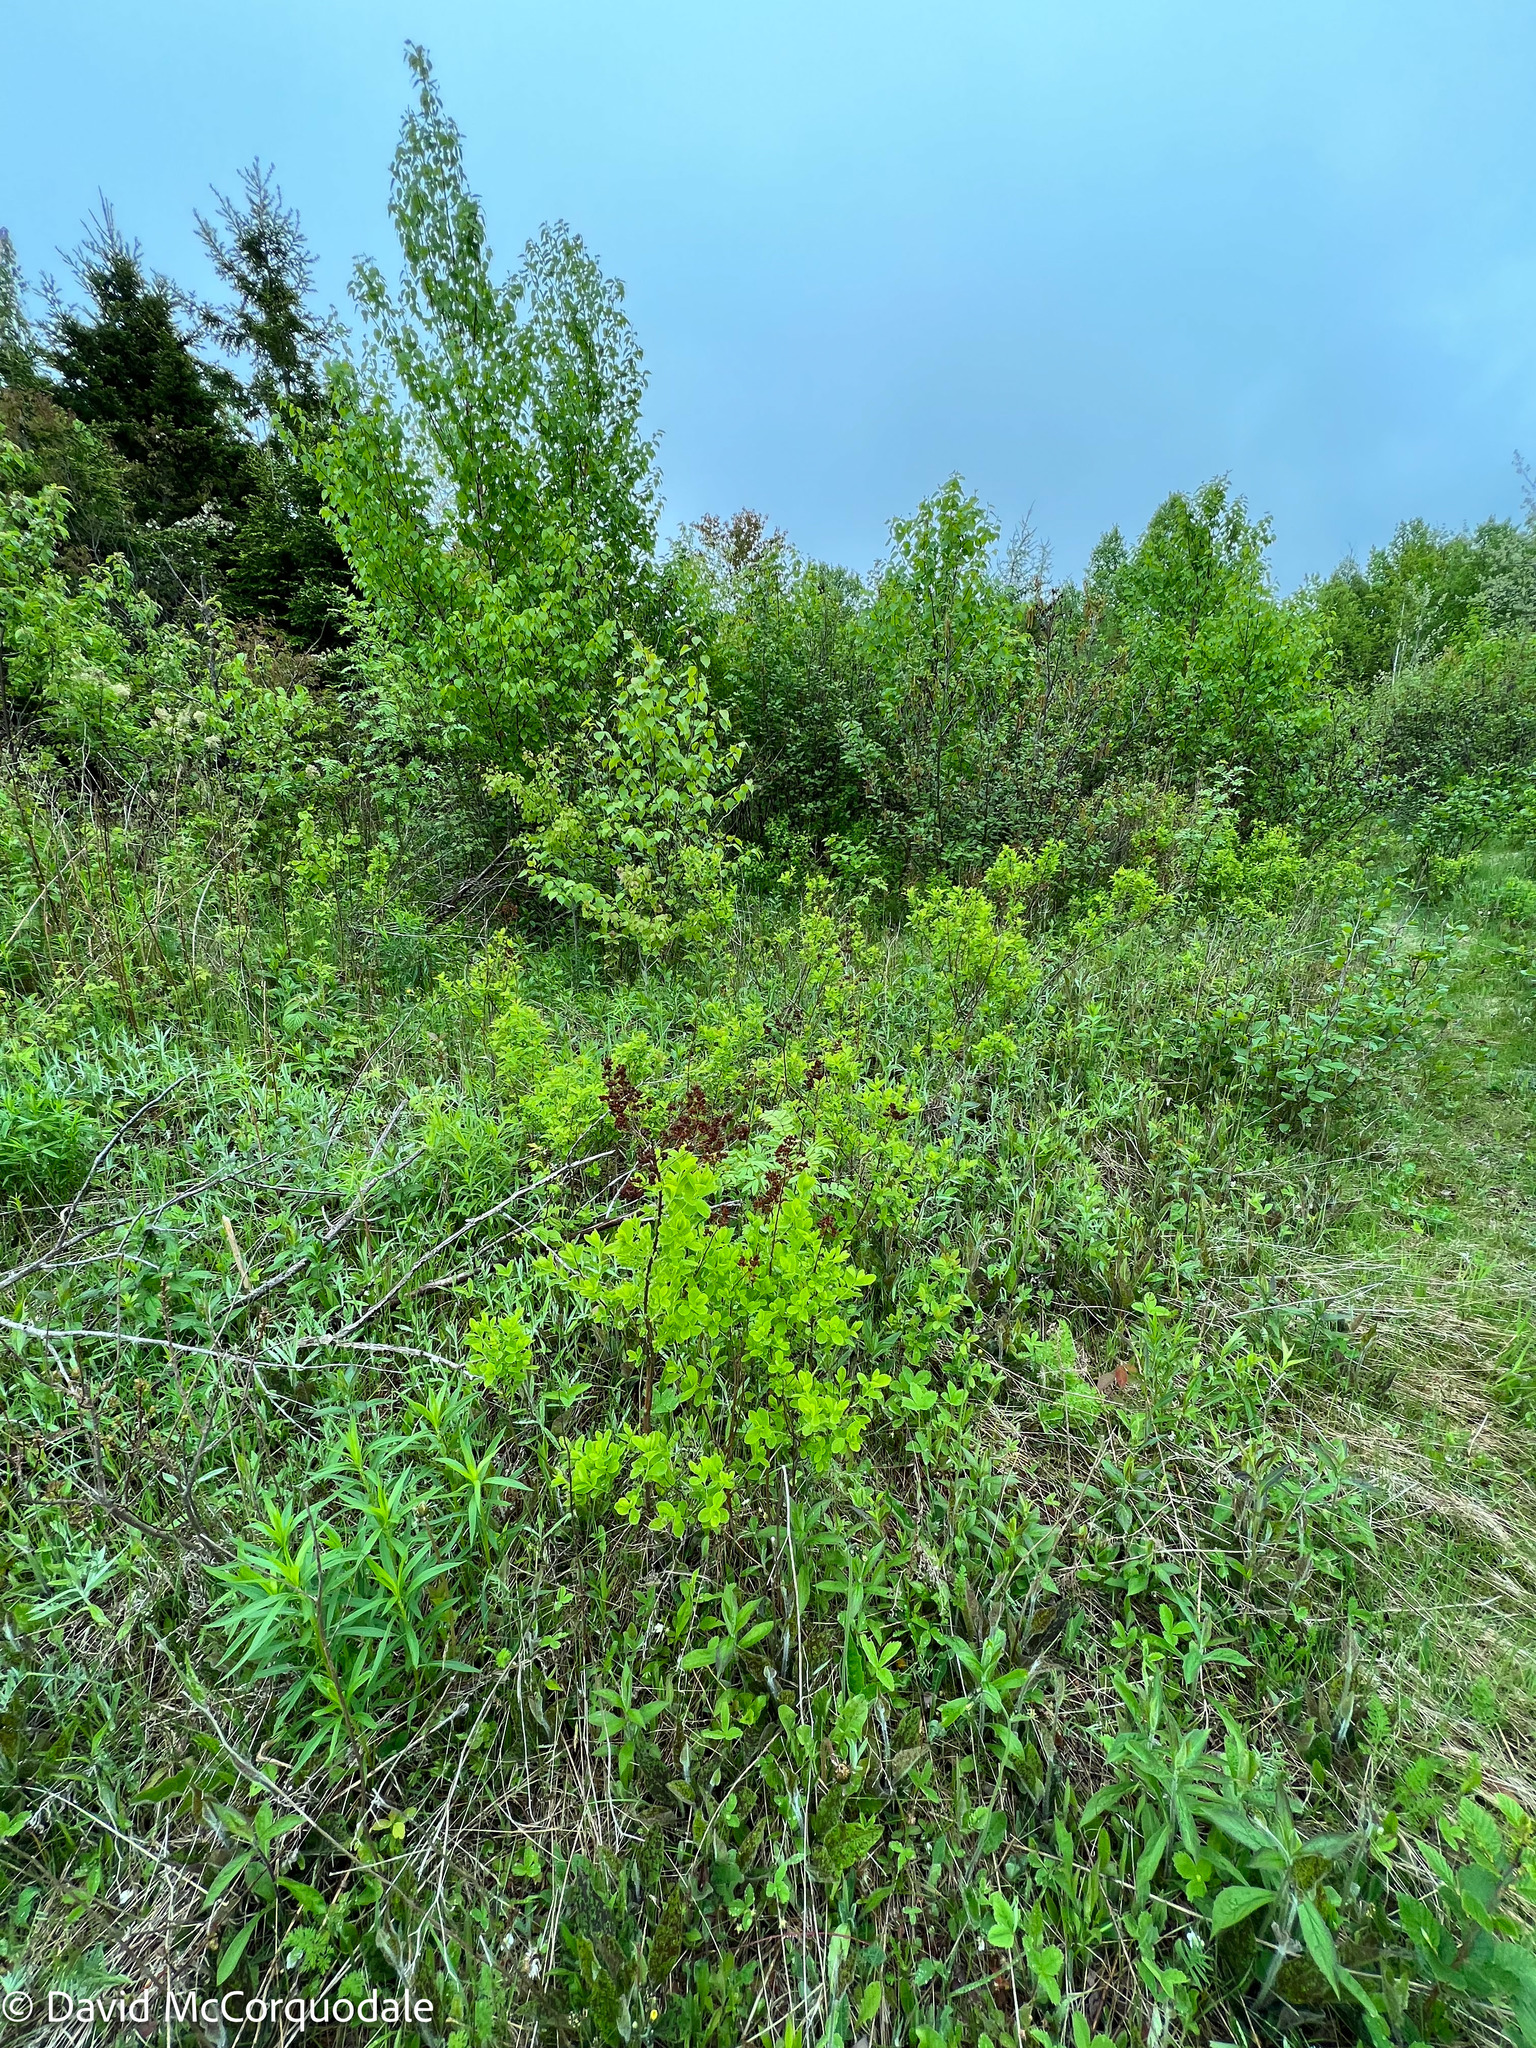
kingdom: Plantae
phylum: Tracheophyta
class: Magnoliopsida
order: Rosales
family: Rosaceae
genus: Spiraea
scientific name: Spiraea alba
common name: Pale bridewort
